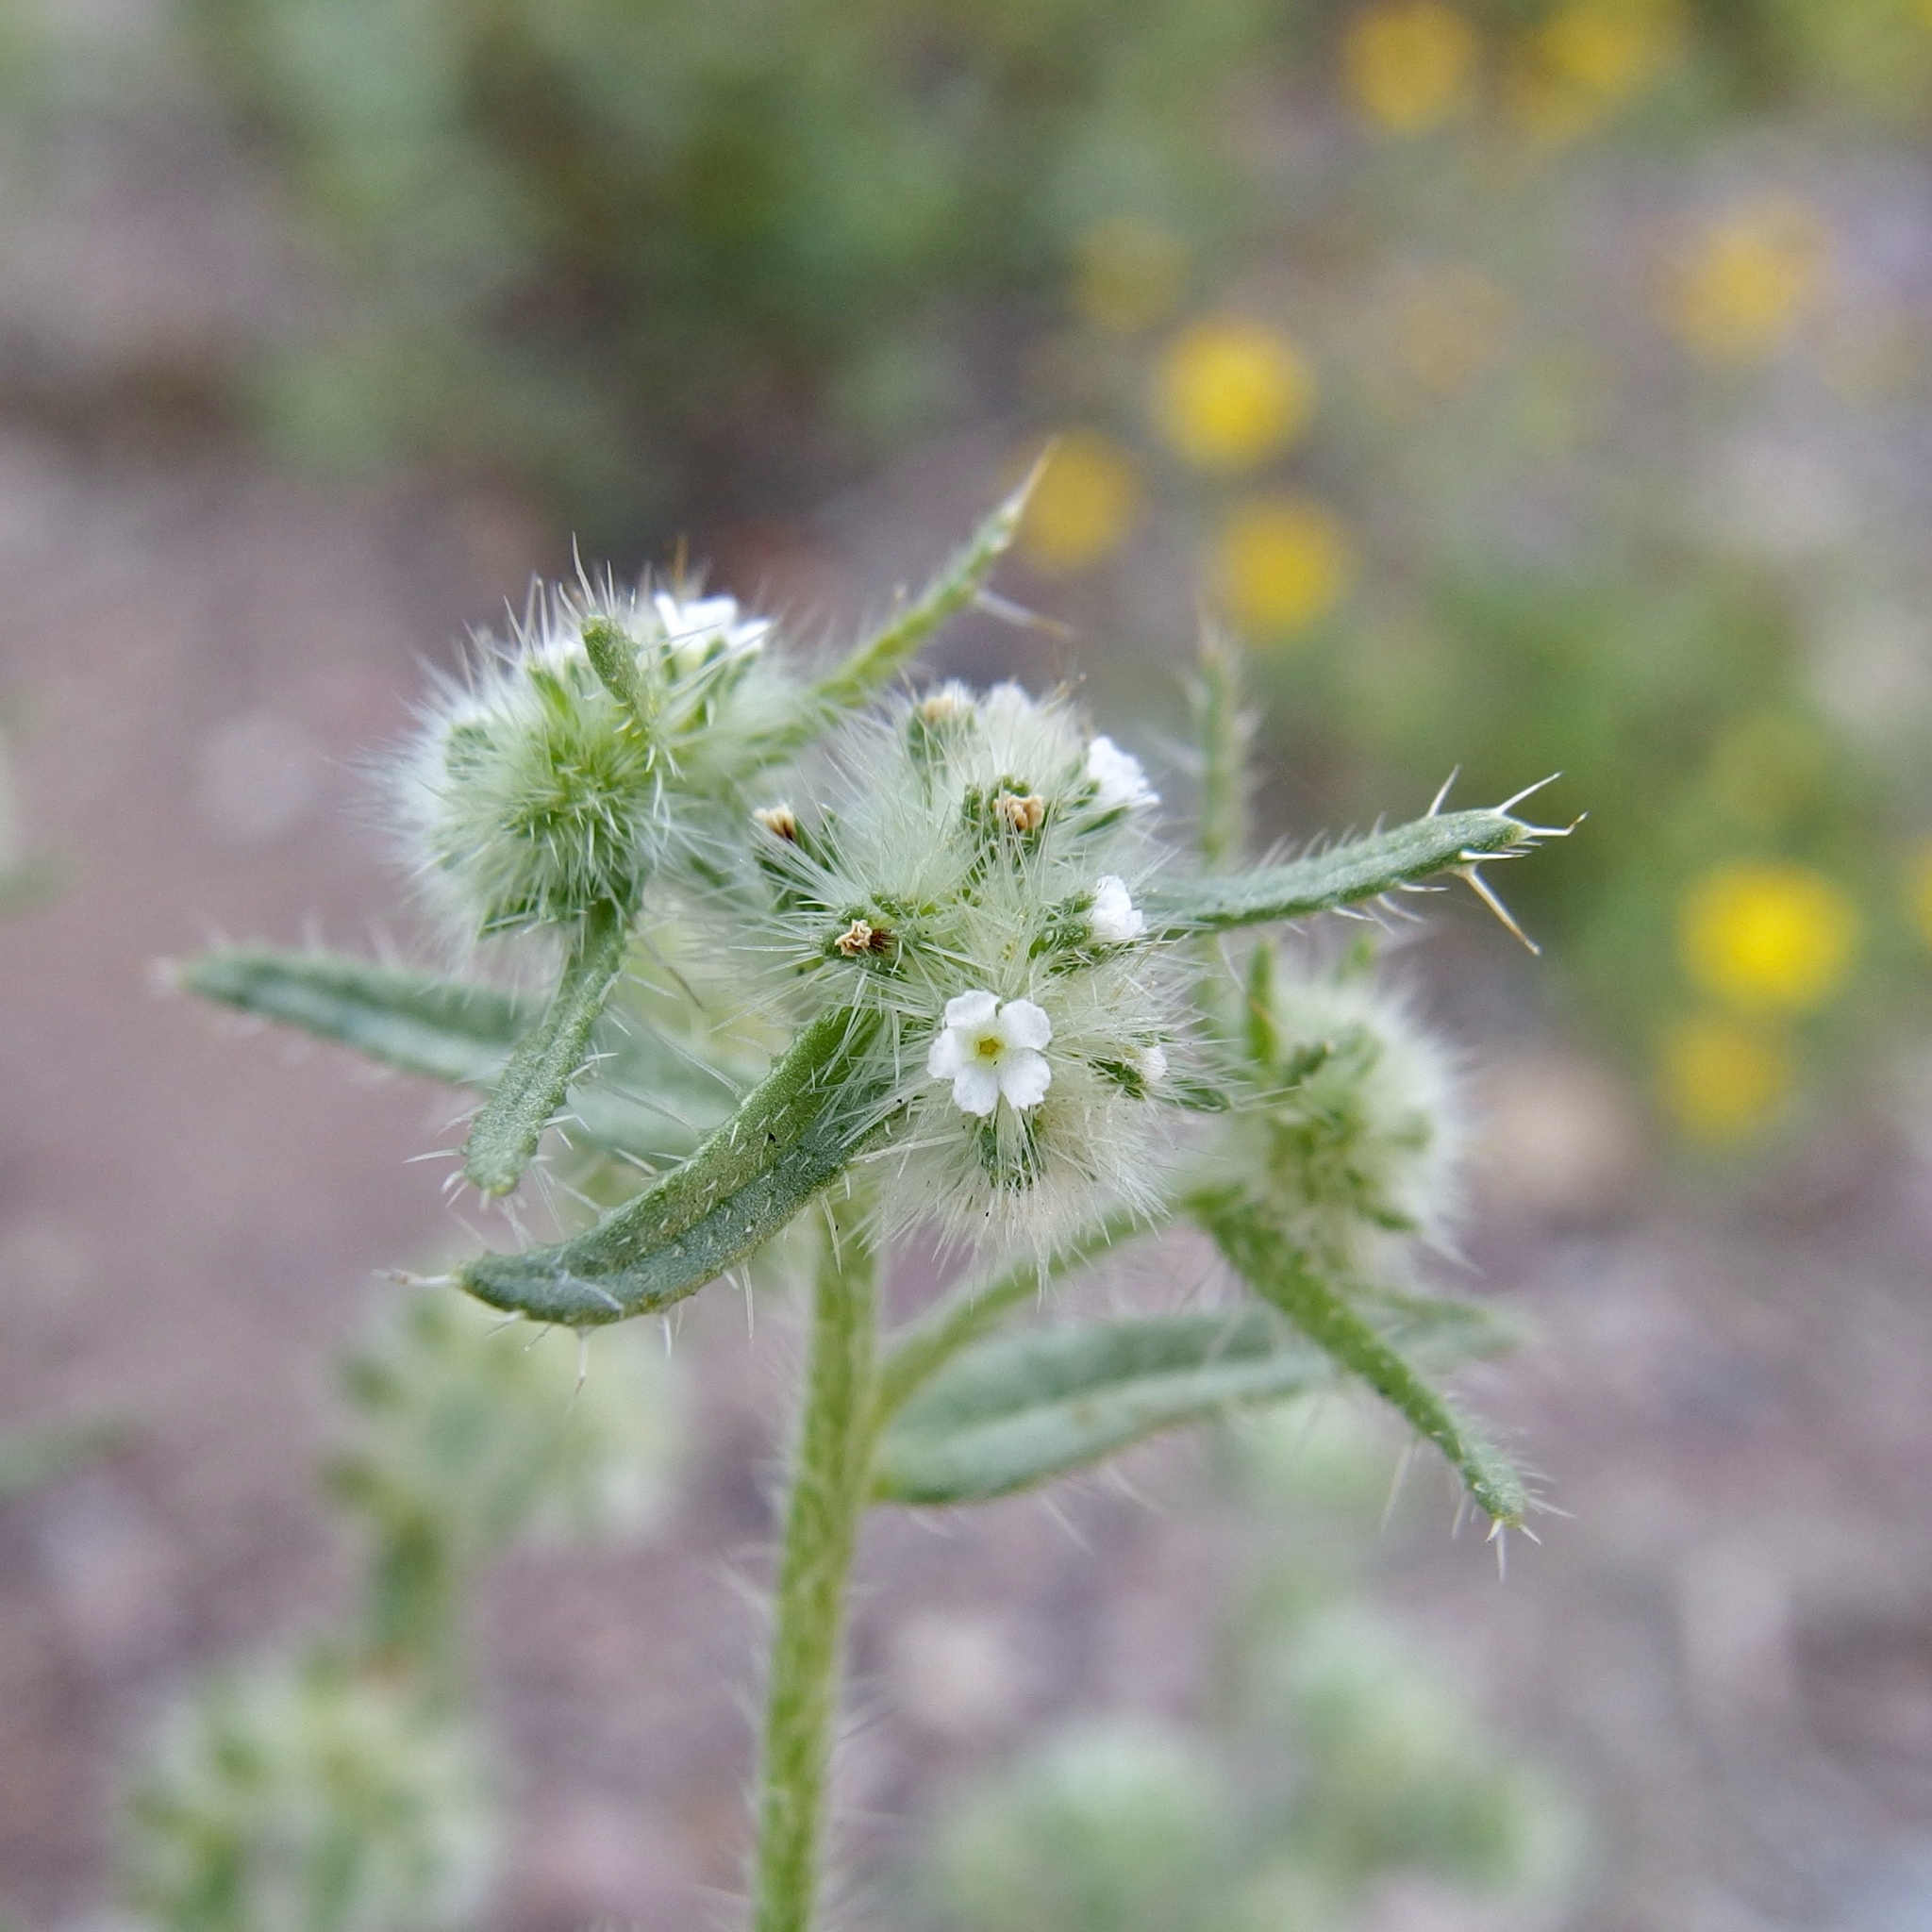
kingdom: Plantae
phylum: Tracheophyta
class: Magnoliopsida
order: Boraginales
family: Boraginaceae
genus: Cryptantha
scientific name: Cryptantha maritima
